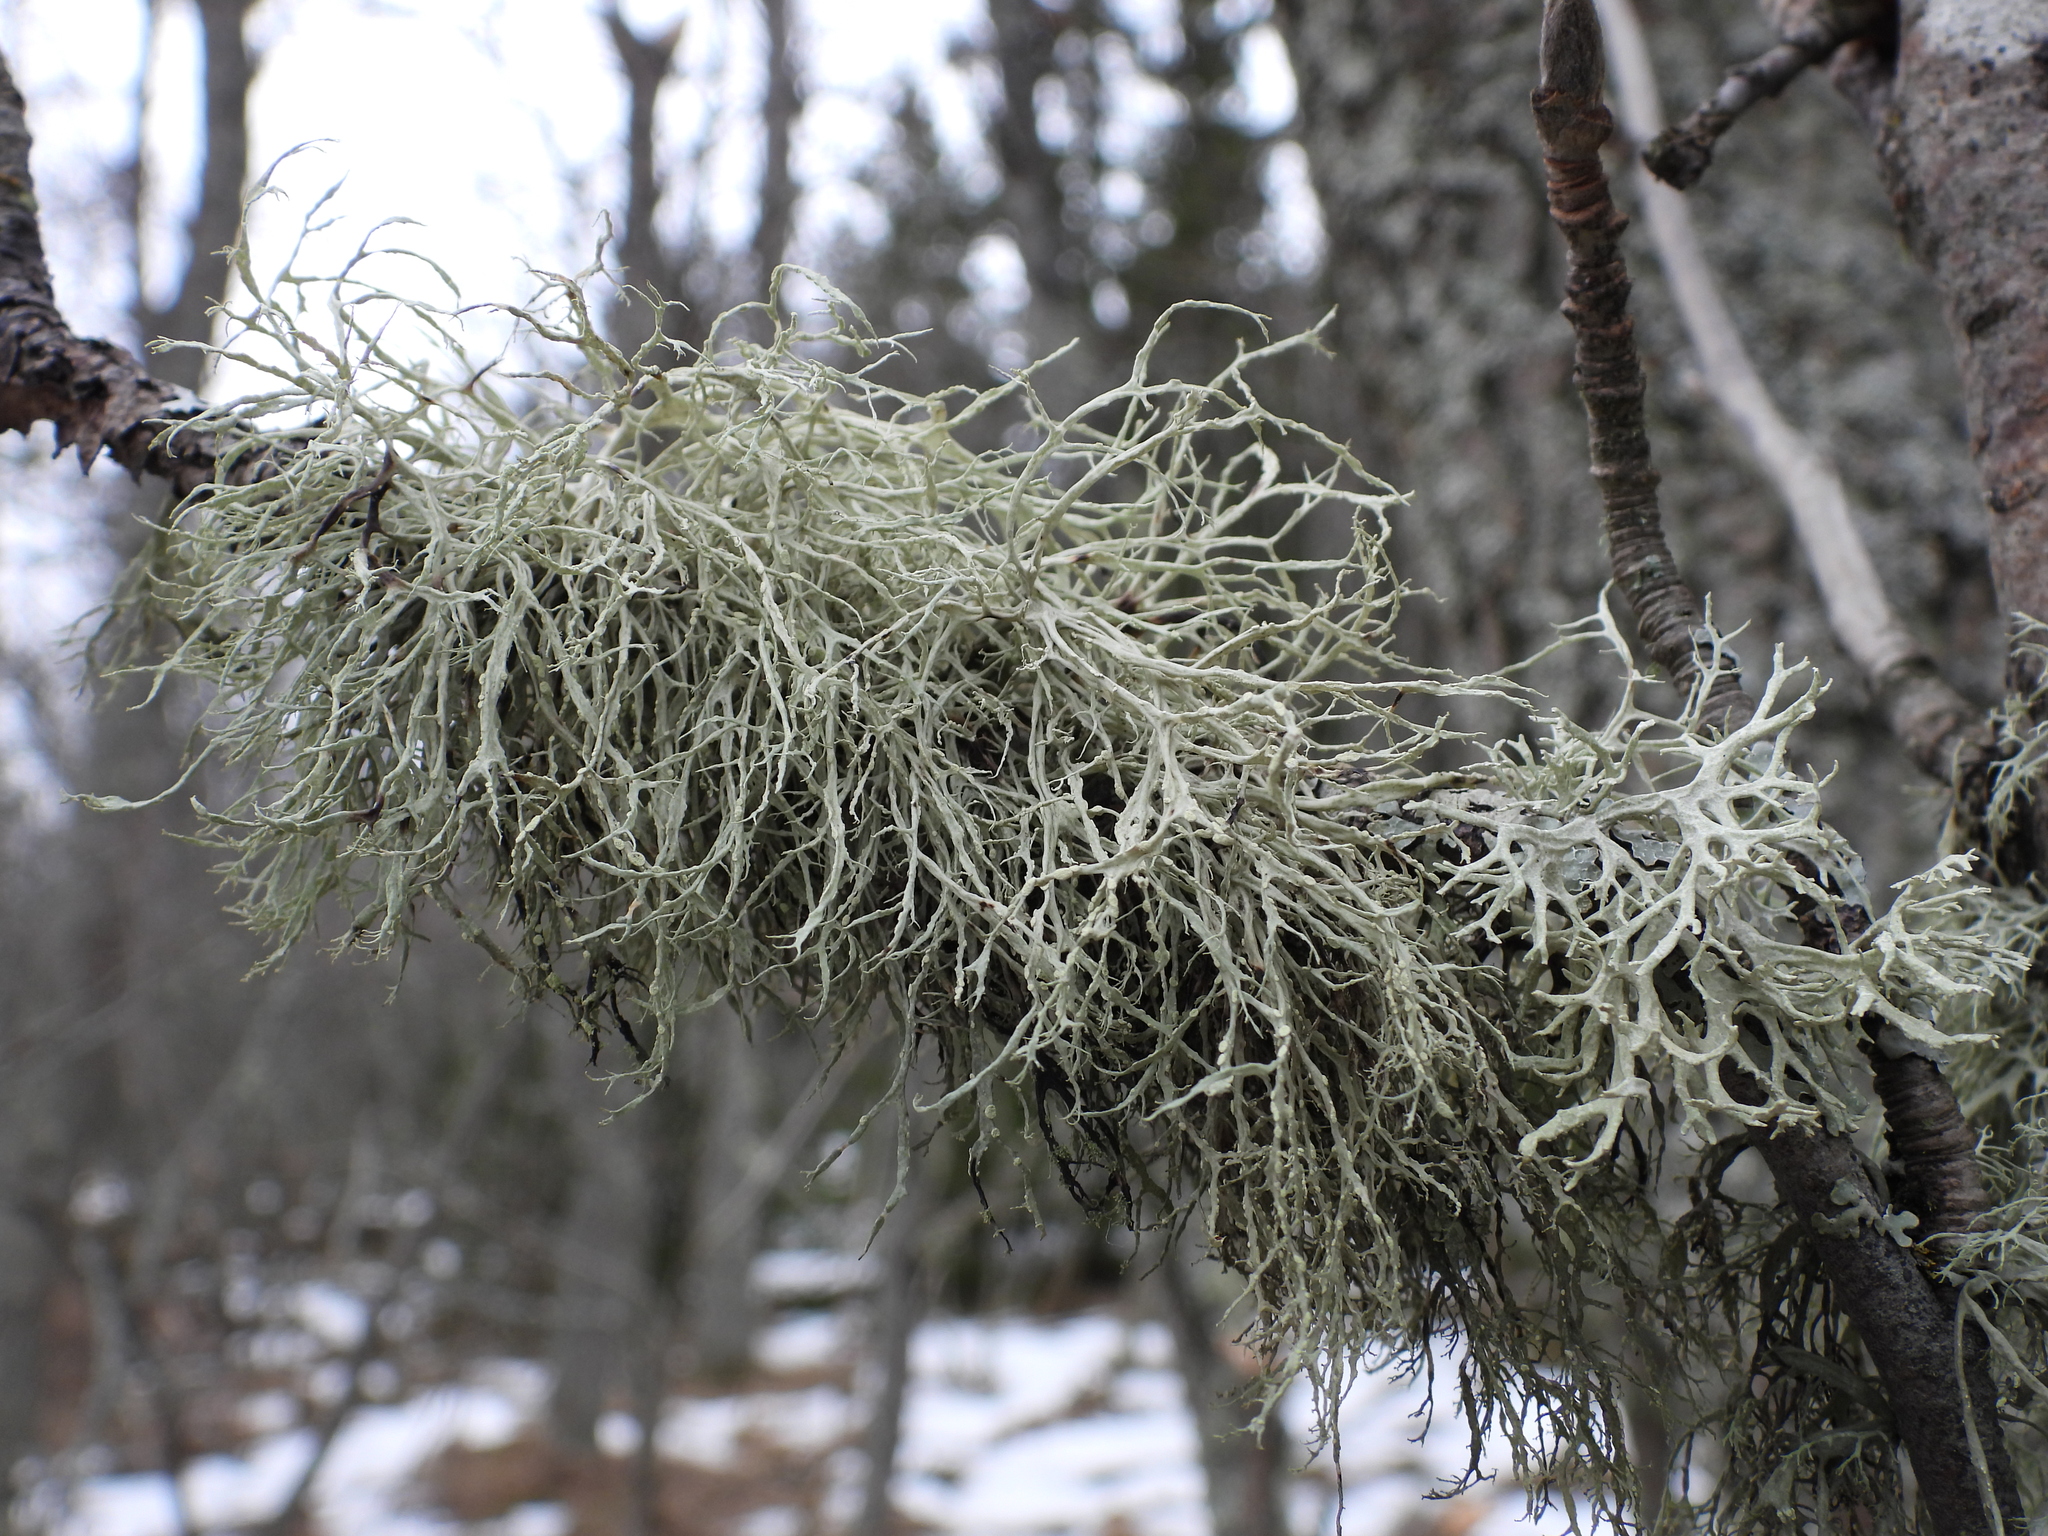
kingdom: Fungi
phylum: Ascomycota
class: Lecanoromycetes
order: Lecanorales
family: Ramalinaceae
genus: Ramalina
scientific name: Ramalina farinacea
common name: Farinose cartilage lichen
